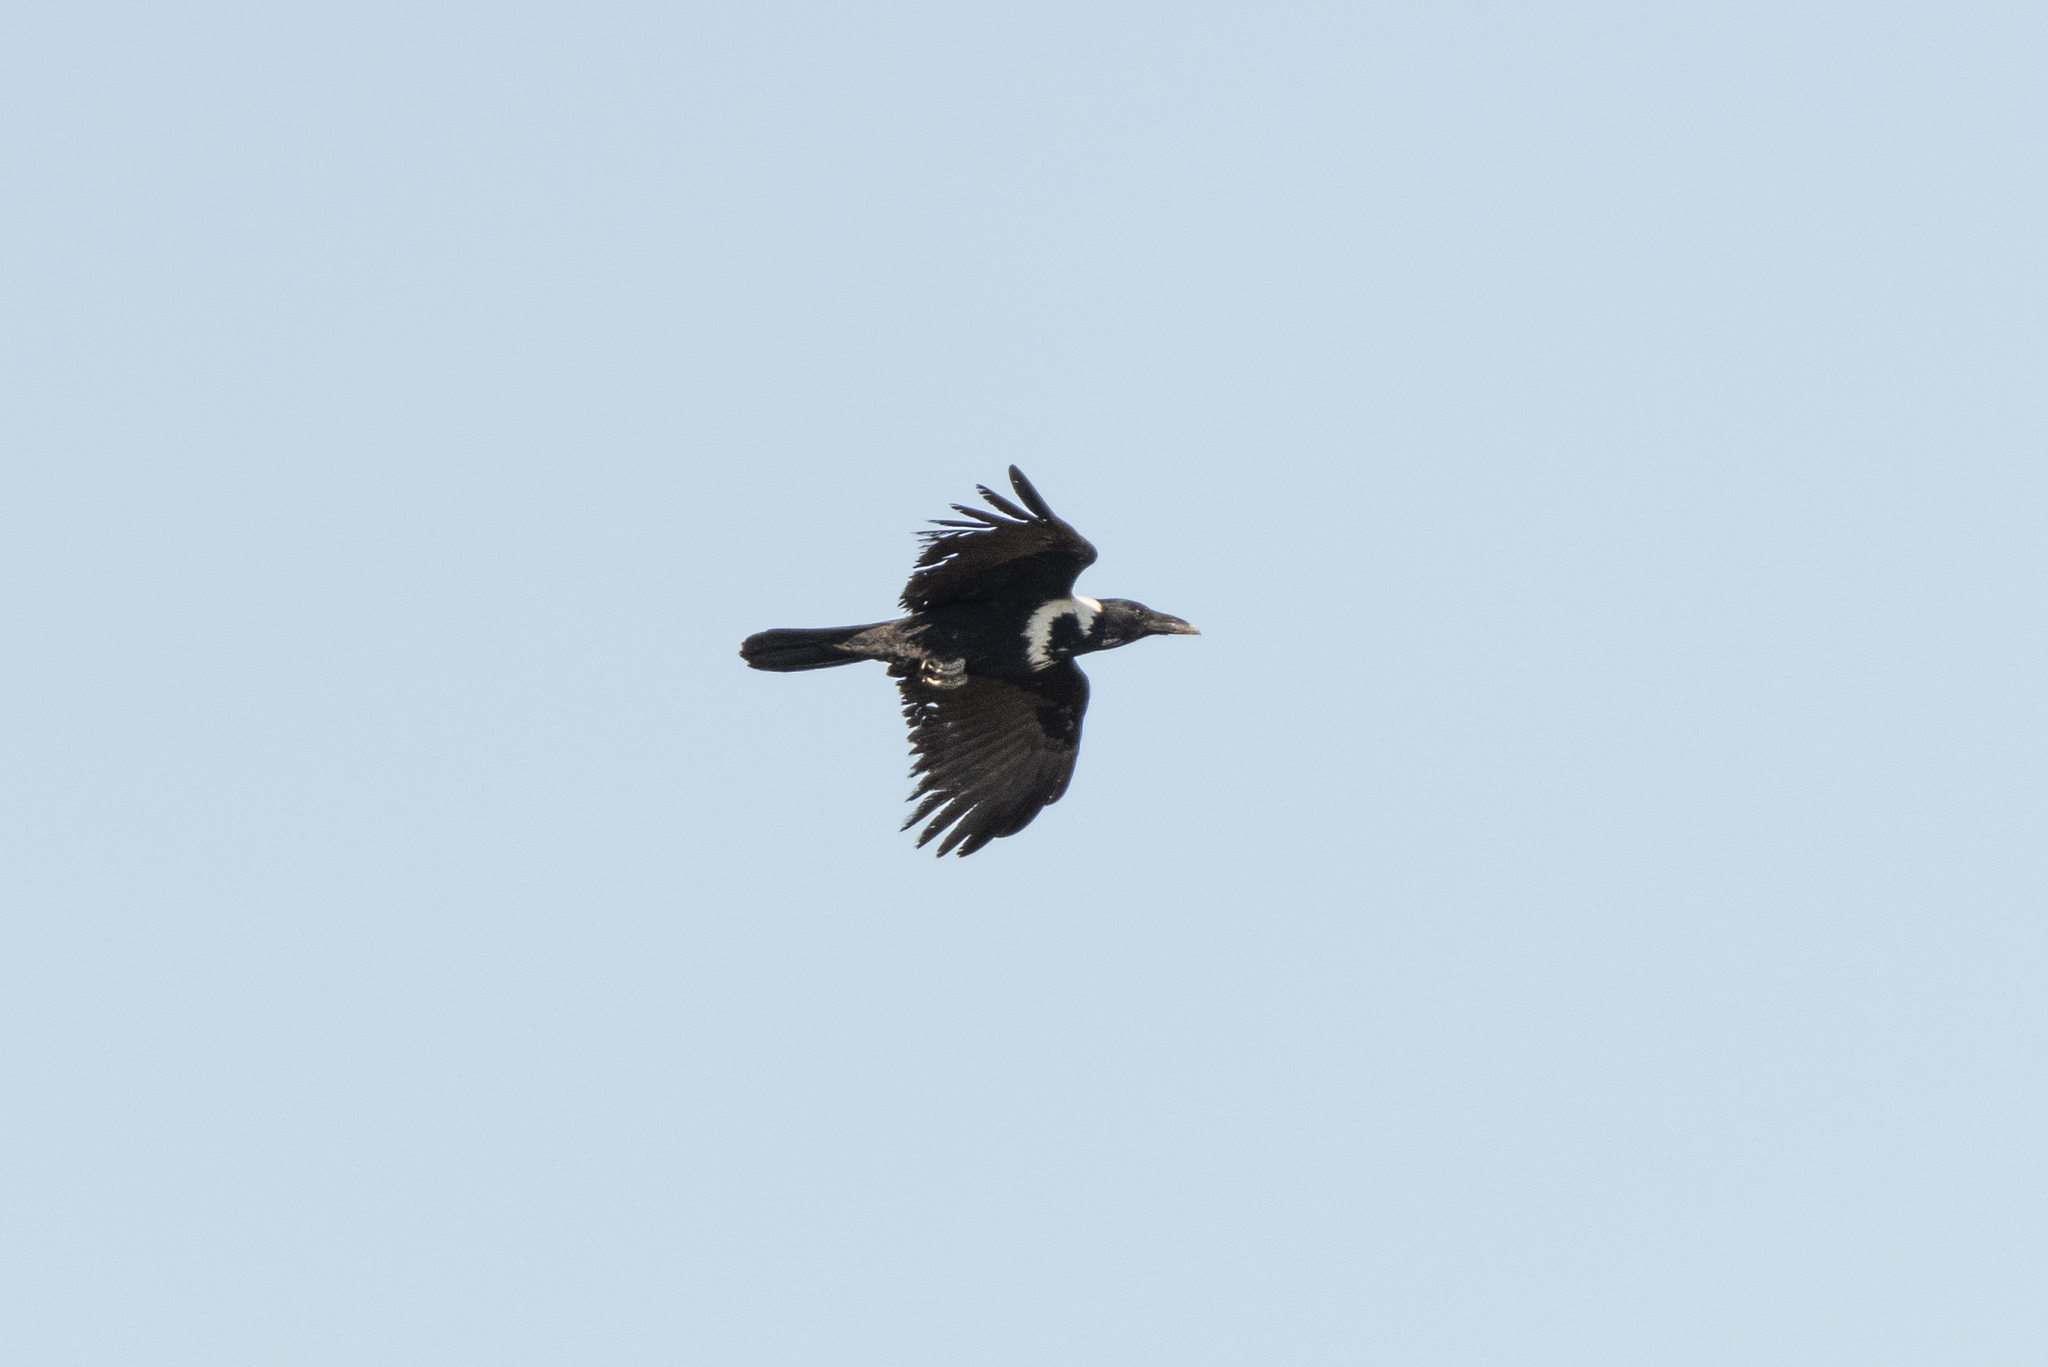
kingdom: Animalia
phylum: Chordata
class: Aves
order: Passeriformes
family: Corvidae
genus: Corvus
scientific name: Corvus pectoralis
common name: Collared crow
